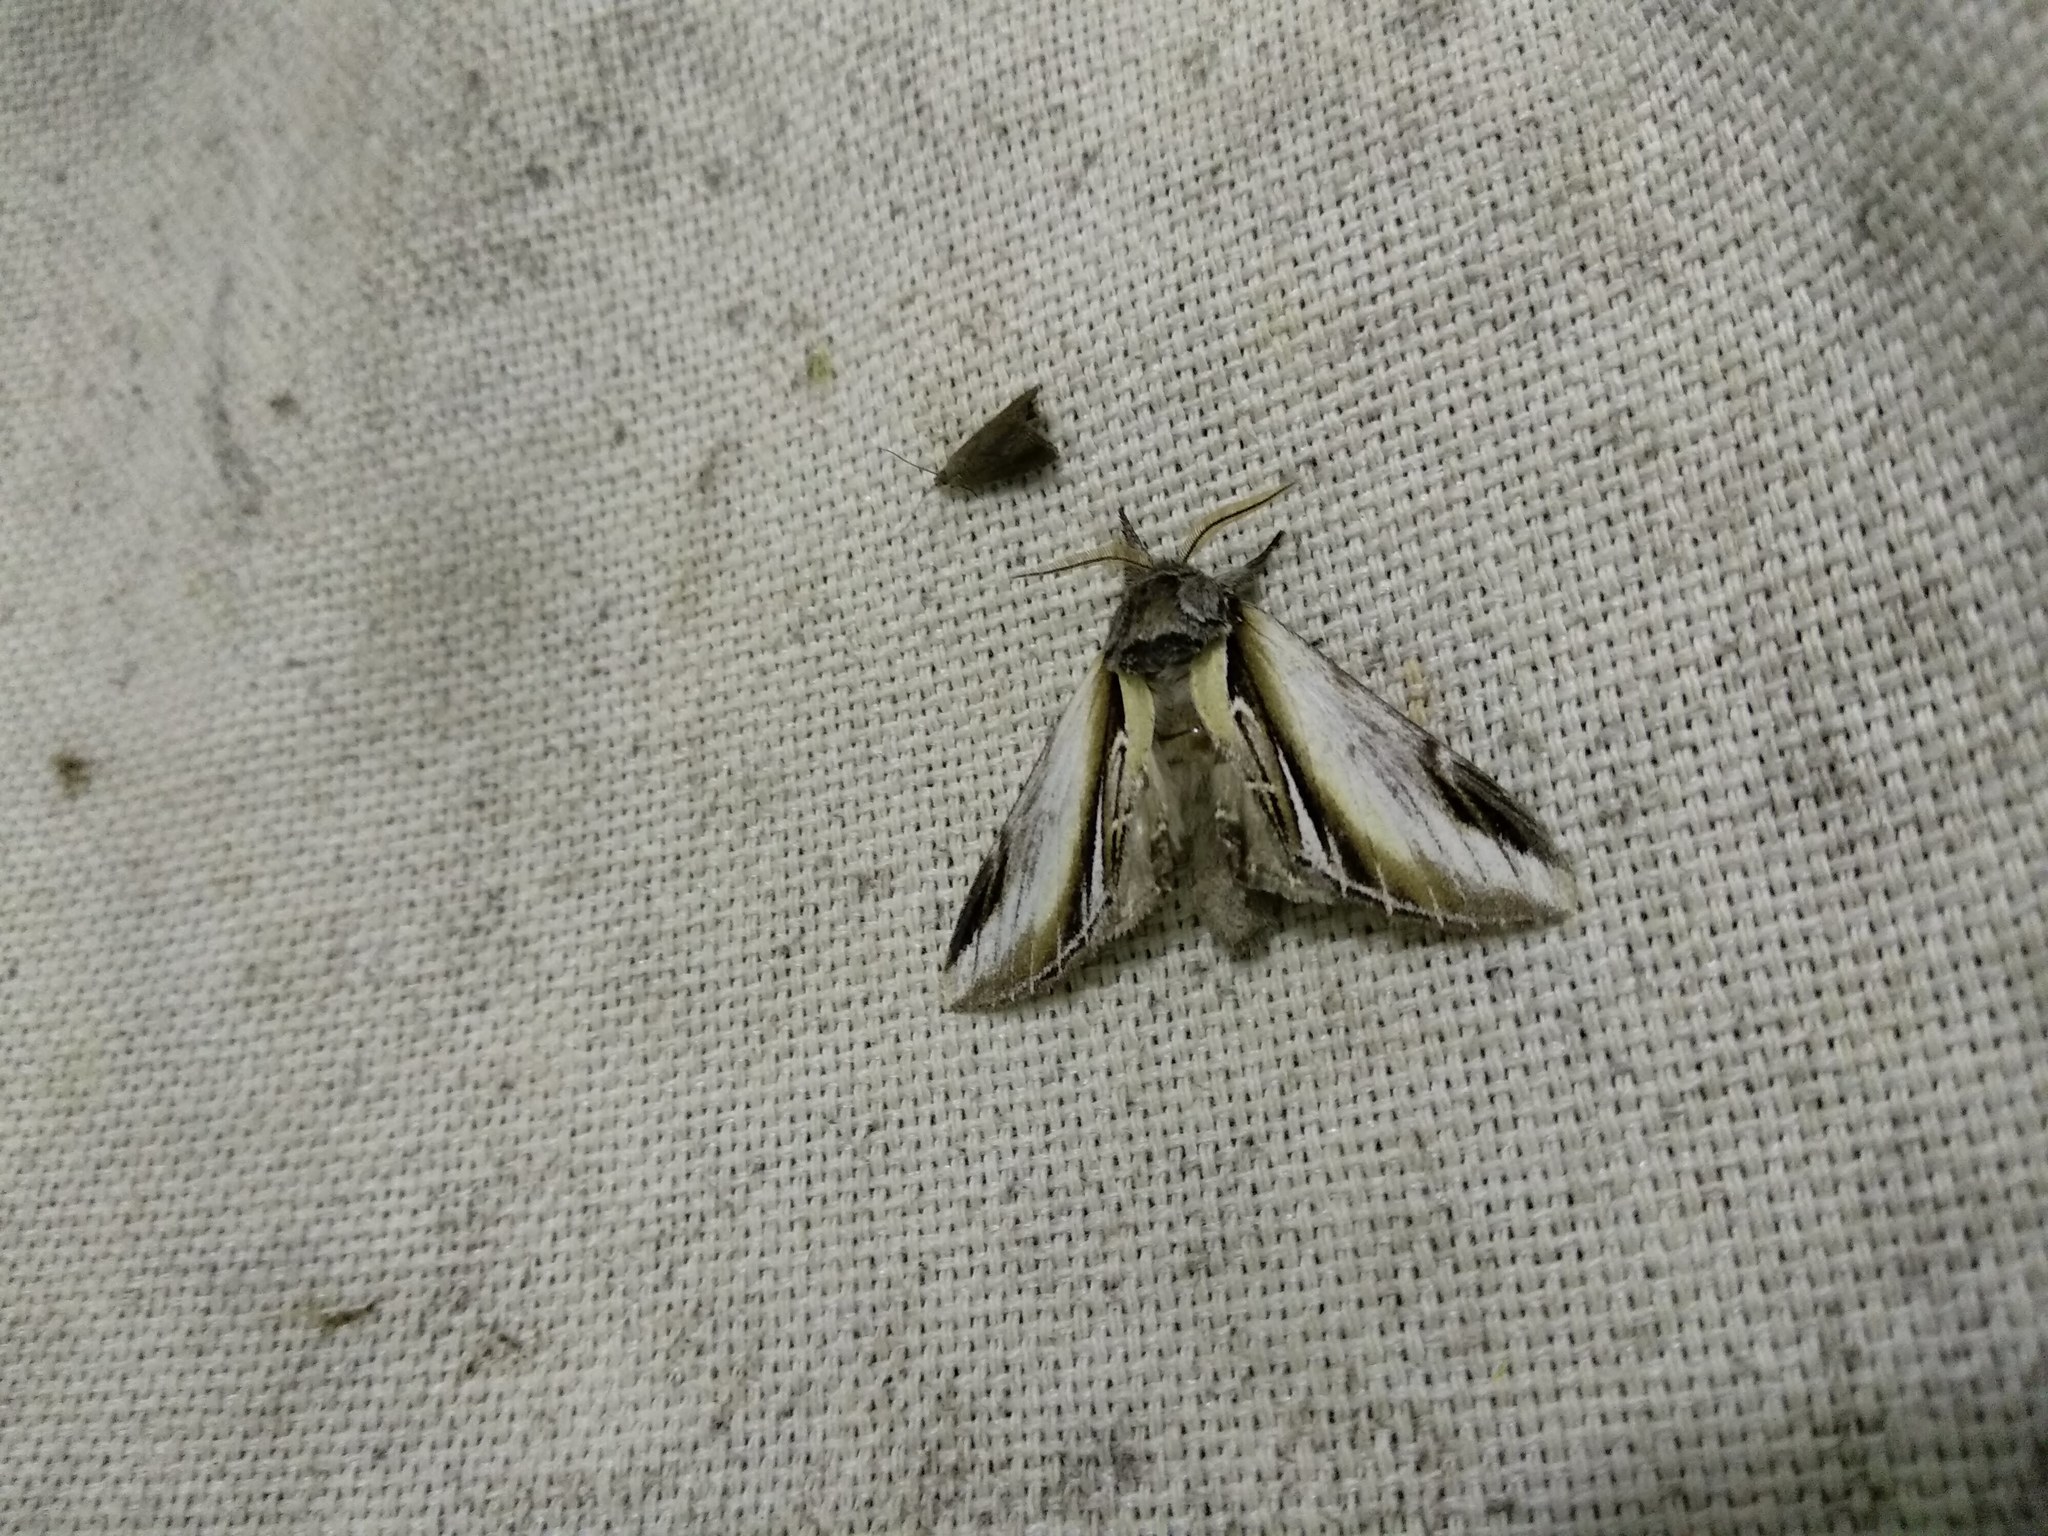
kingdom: Animalia
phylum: Arthropoda
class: Insecta
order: Lepidoptera
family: Notodontidae
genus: Pheosia
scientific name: Pheosia gnoma
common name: Lesser swallow prominent
